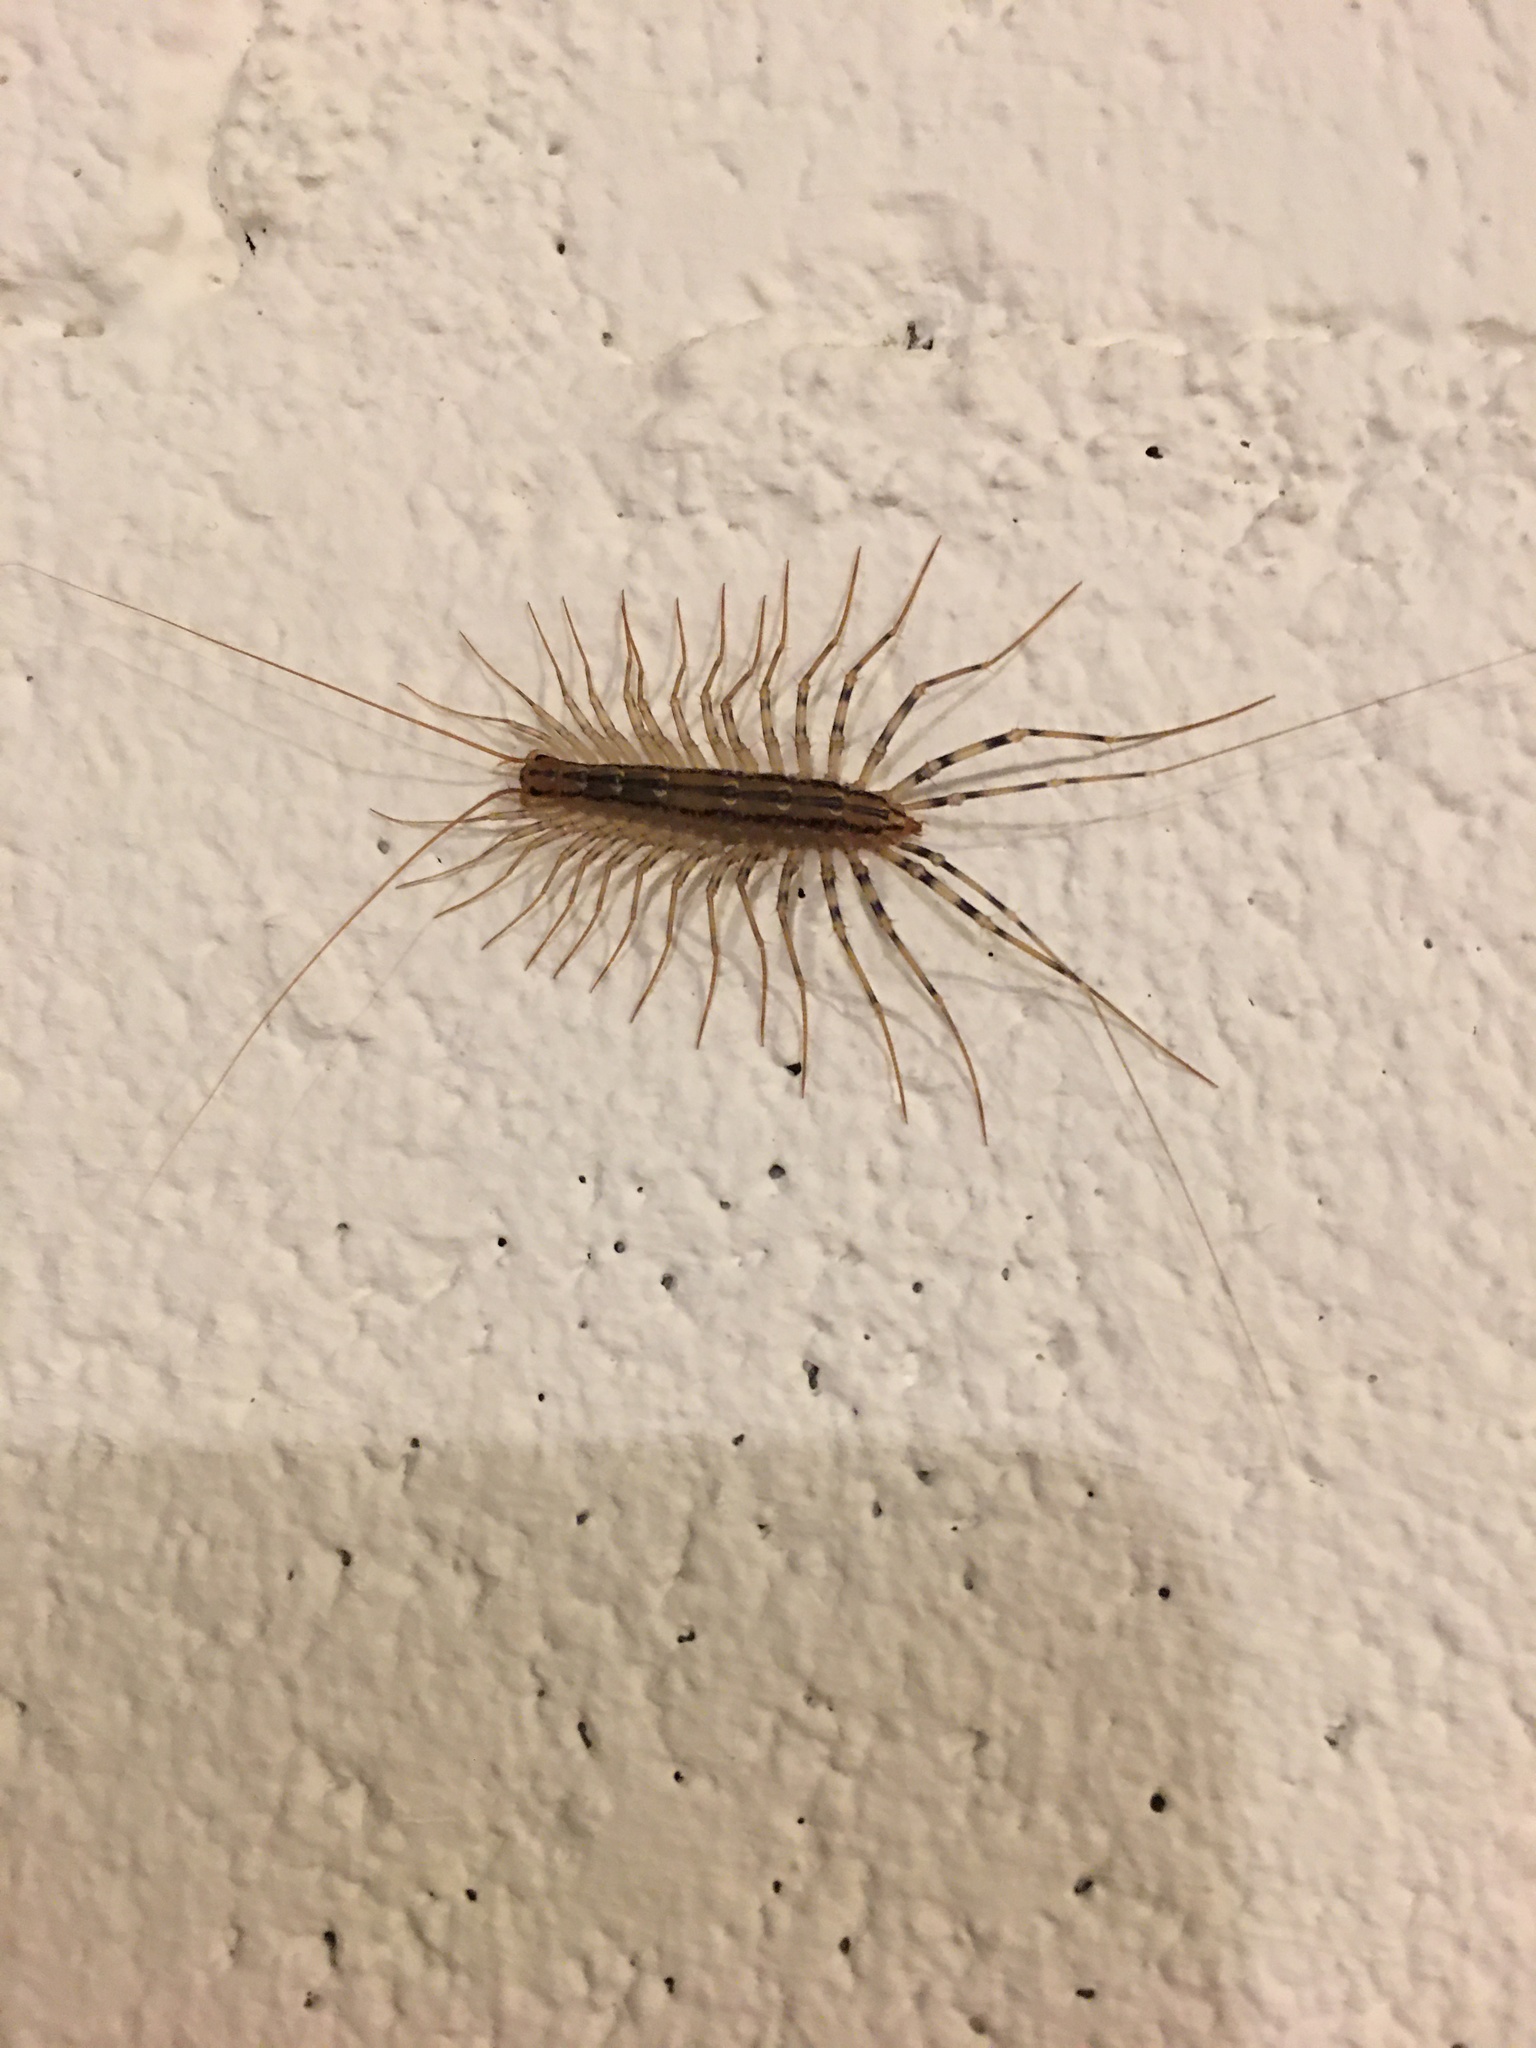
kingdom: Animalia
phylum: Arthropoda
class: Chilopoda
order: Scutigeromorpha
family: Scutigeridae
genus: Scutigera
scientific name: Scutigera coleoptrata
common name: House centipede
